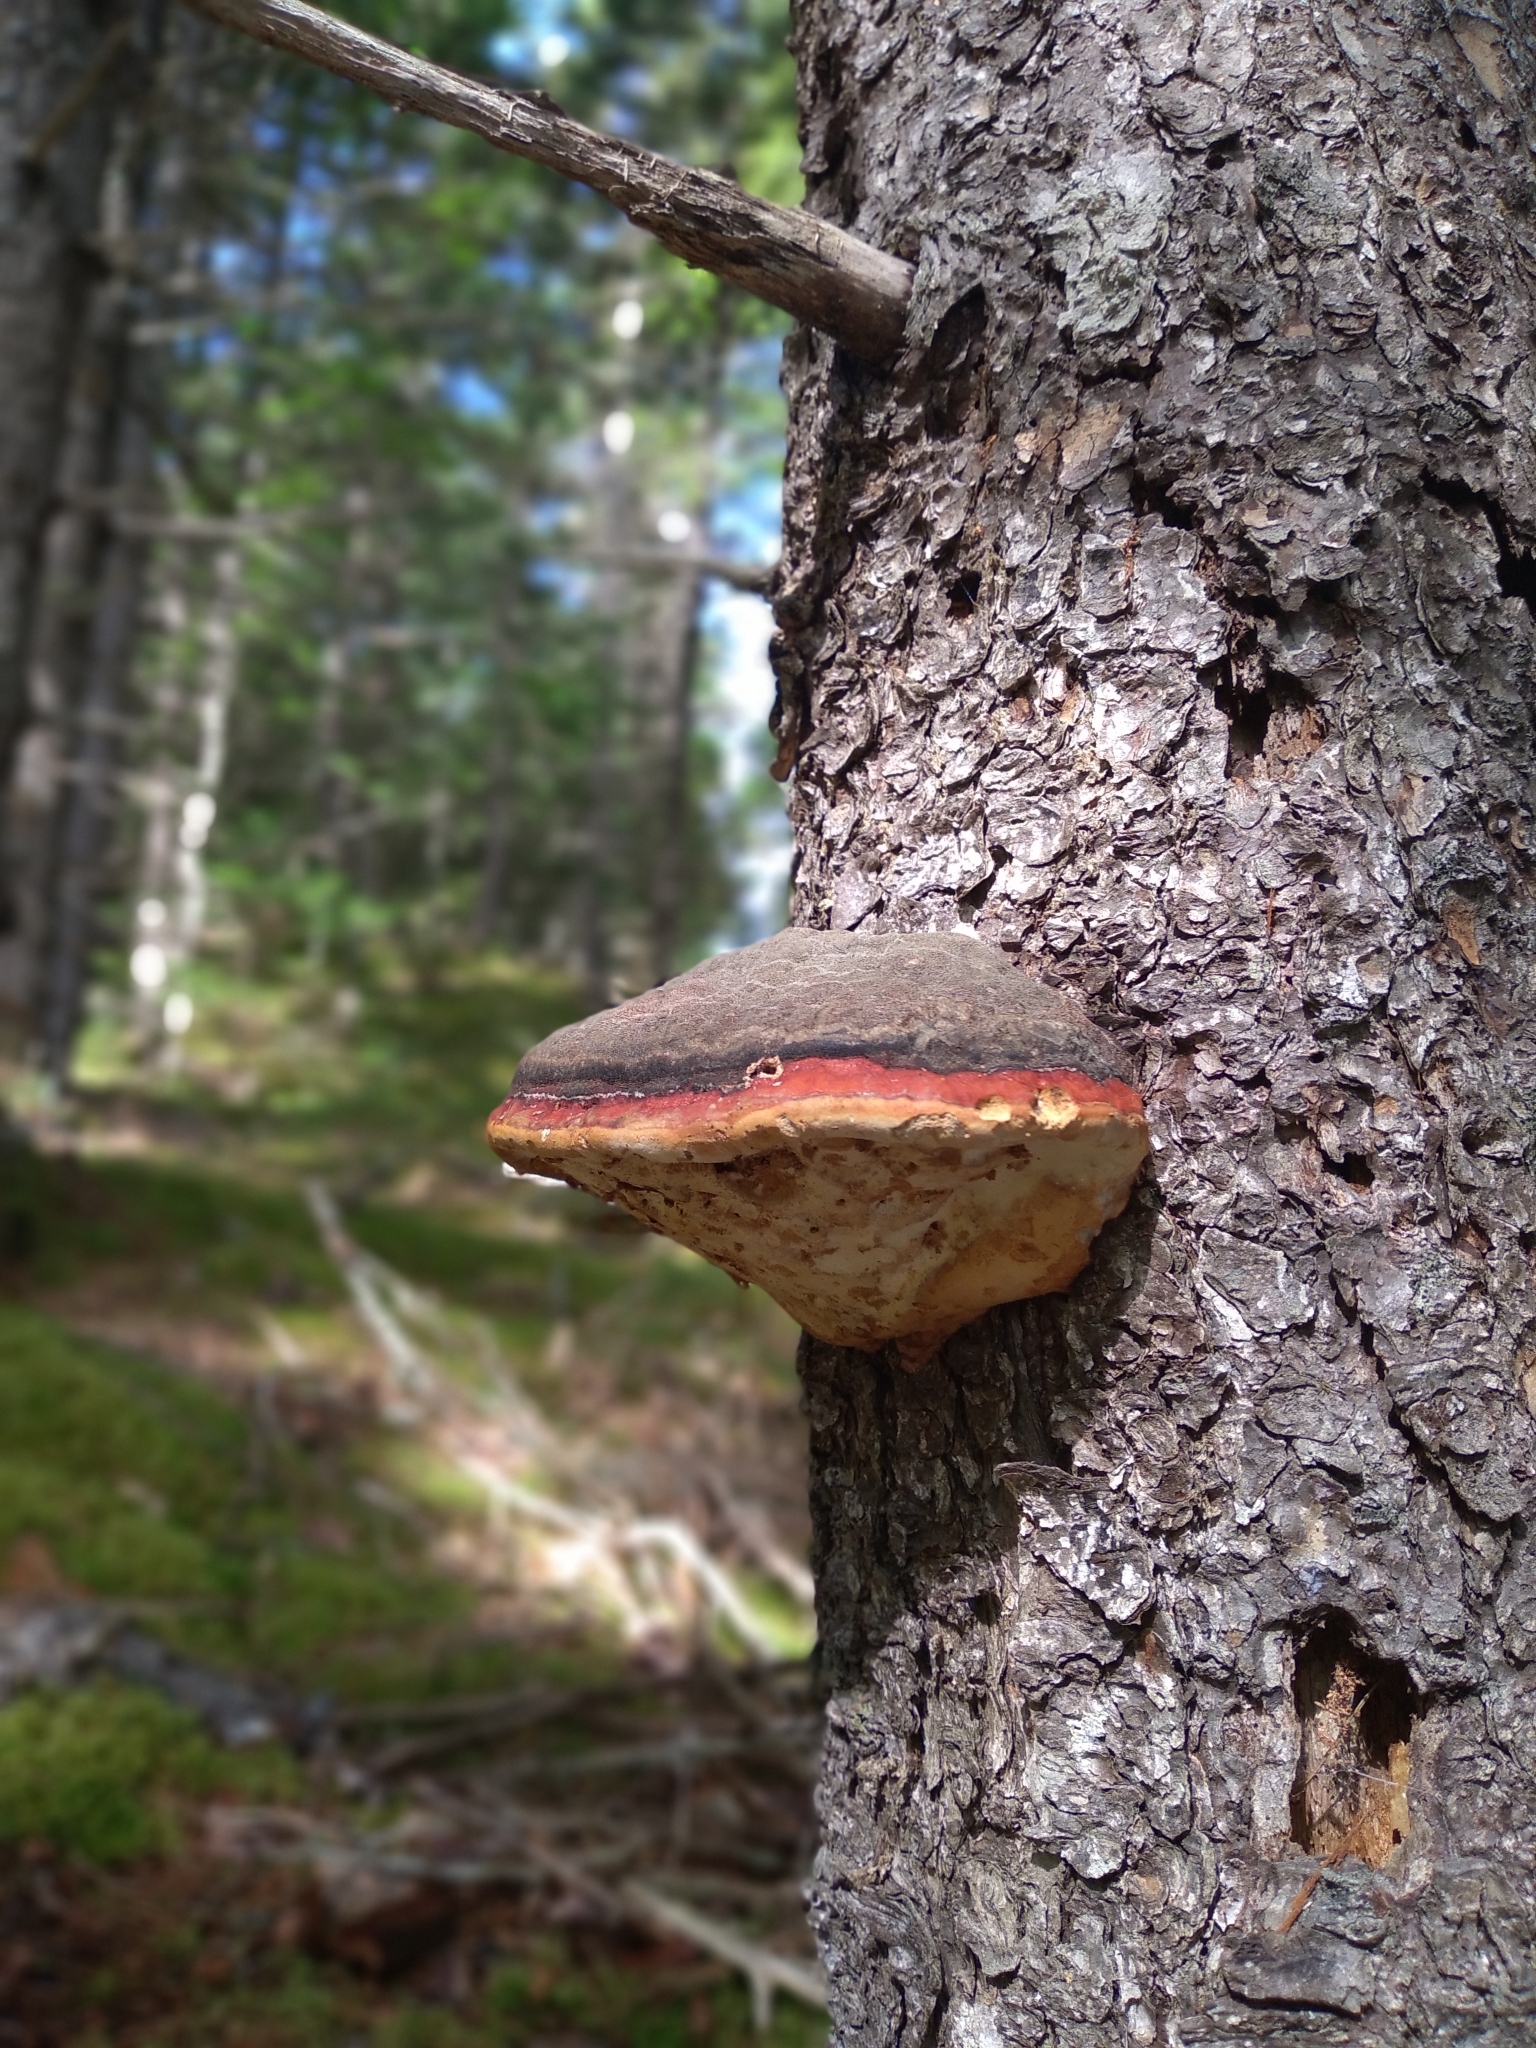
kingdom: Fungi
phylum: Basidiomycota
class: Agaricomycetes
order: Polyporales
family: Fomitopsidaceae
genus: Fomitopsis
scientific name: Fomitopsis mounceae
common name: Northern red belt
